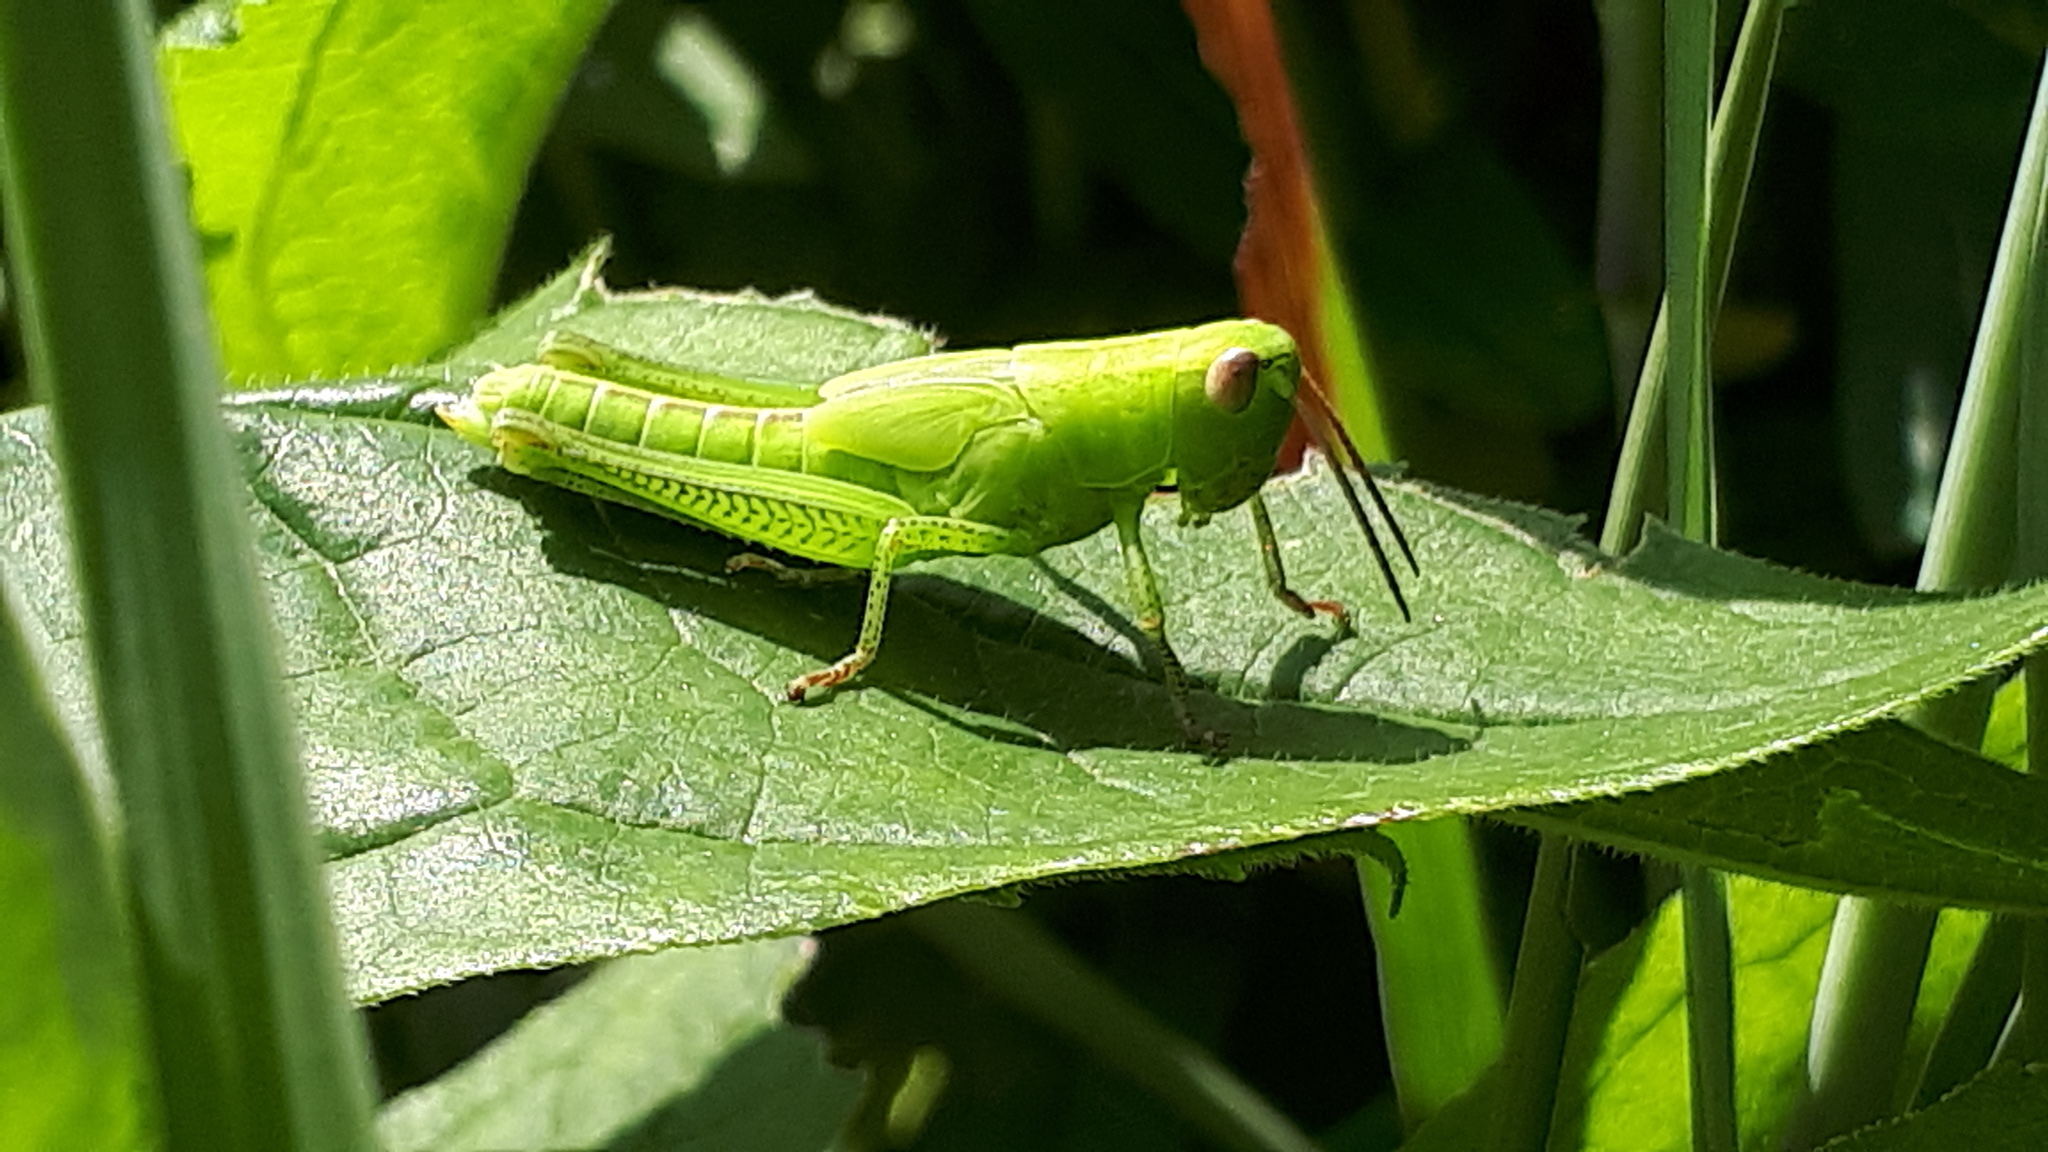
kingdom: Animalia
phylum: Arthropoda
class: Insecta
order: Orthoptera
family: Acrididae
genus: Mecostethus
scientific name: Mecostethus parapleurus
